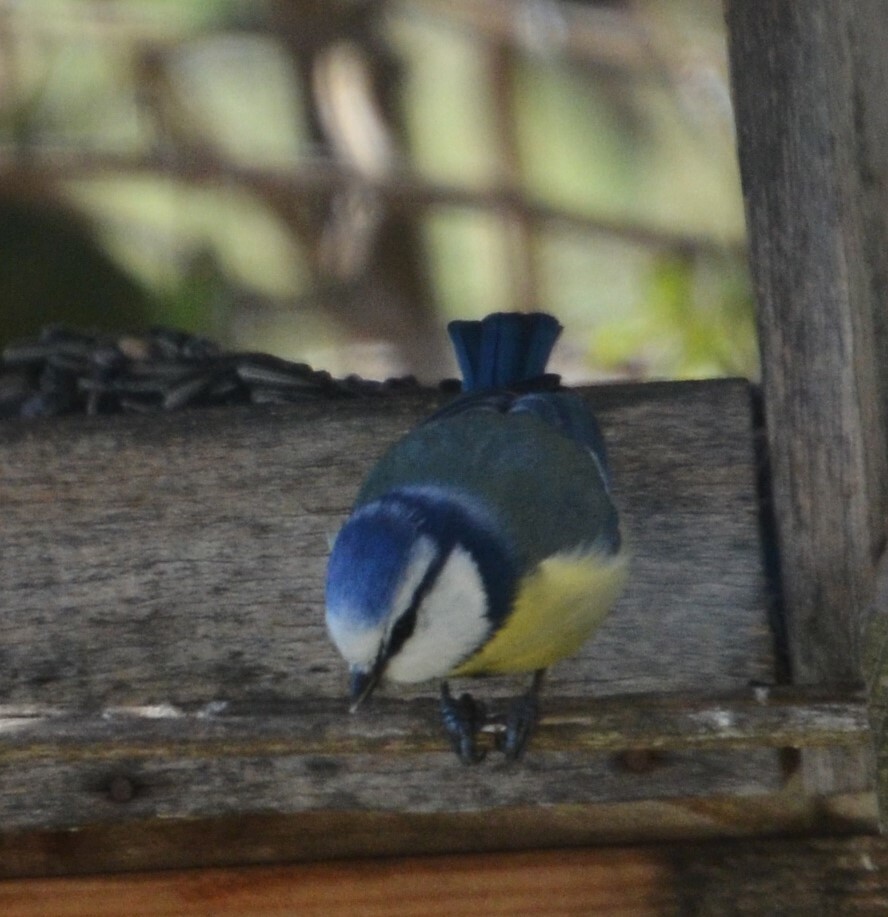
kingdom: Animalia
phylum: Chordata
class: Aves
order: Passeriformes
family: Paridae
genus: Cyanistes
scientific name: Cyanistes caeruleus
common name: Eurasian blue tit
